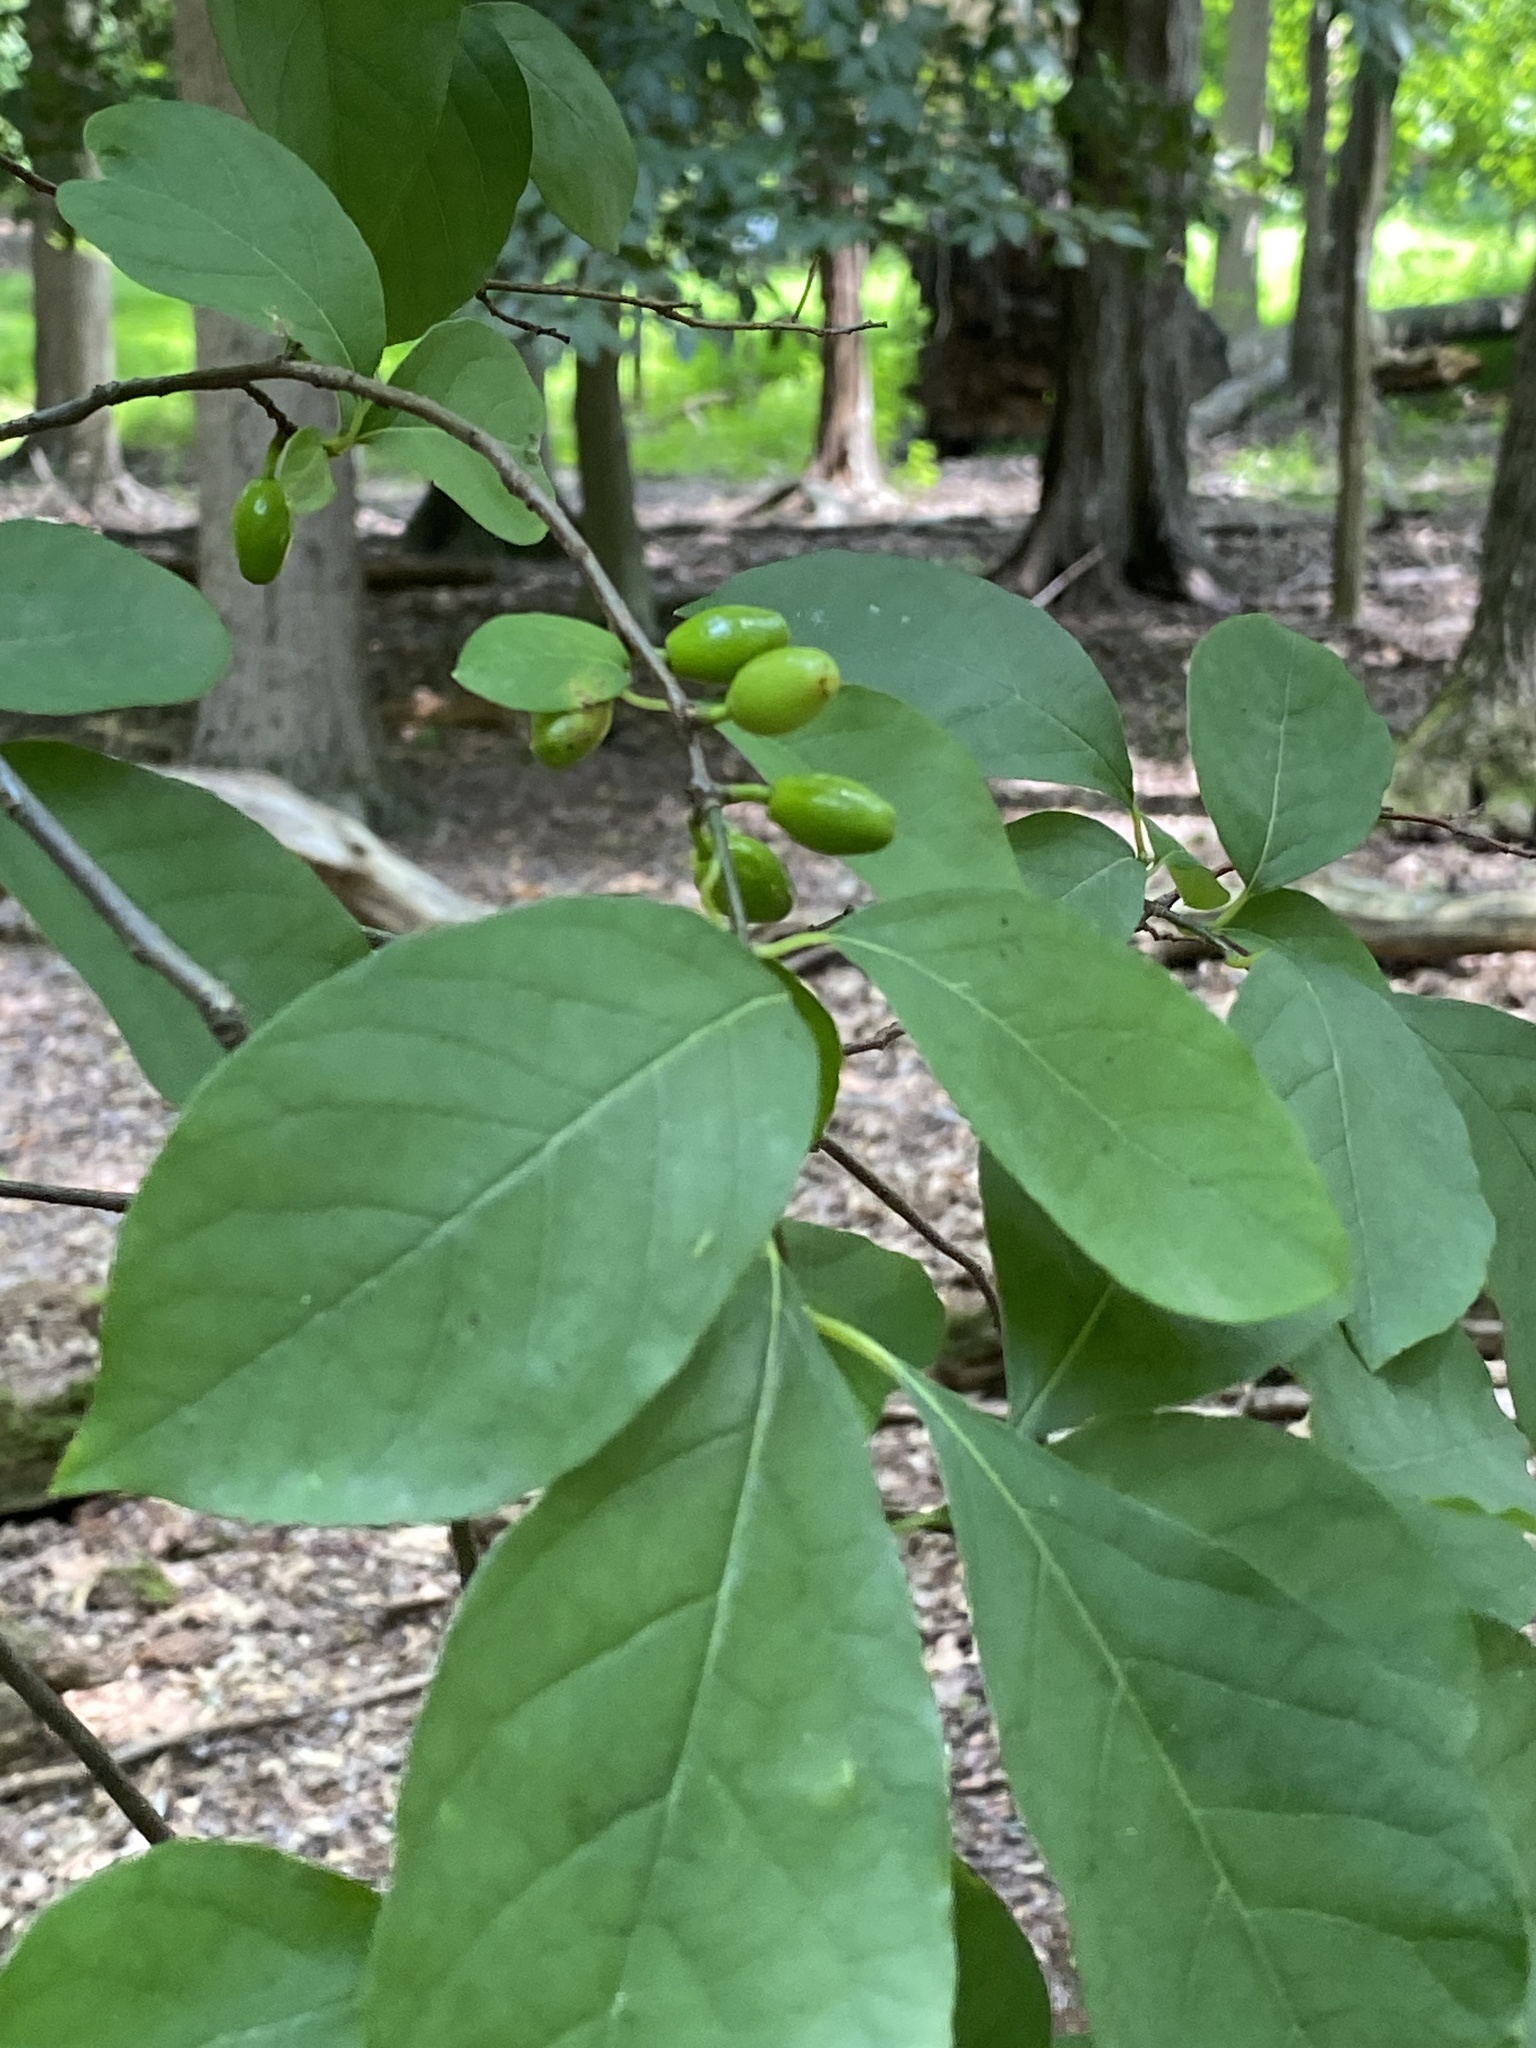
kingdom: Plantae
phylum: Tracheophyta
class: Magnoliopsida
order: Laurales
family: Lauraceae
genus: Lindera
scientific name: Lindera benzoin
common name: Spicebush
